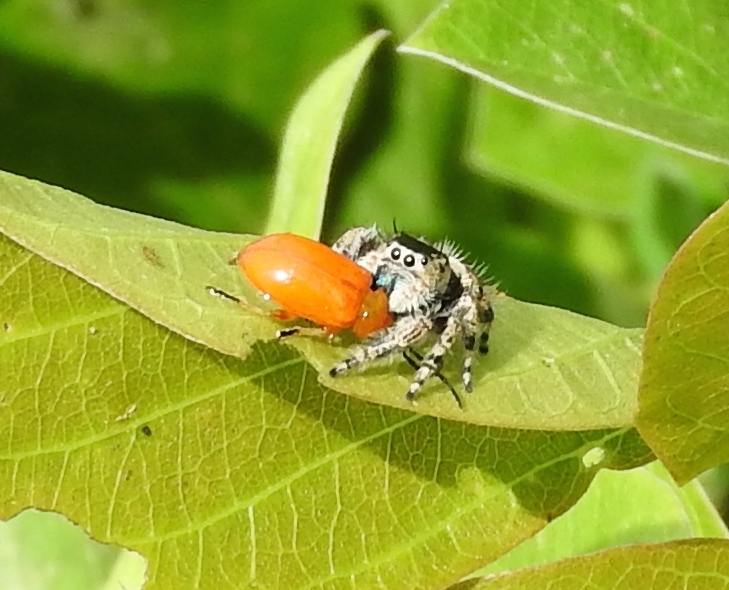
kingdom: Animalia
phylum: Arthropoda
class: Arachnida
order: Araneae
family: Salticidae
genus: Phidippus
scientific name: Phidippus californicus
